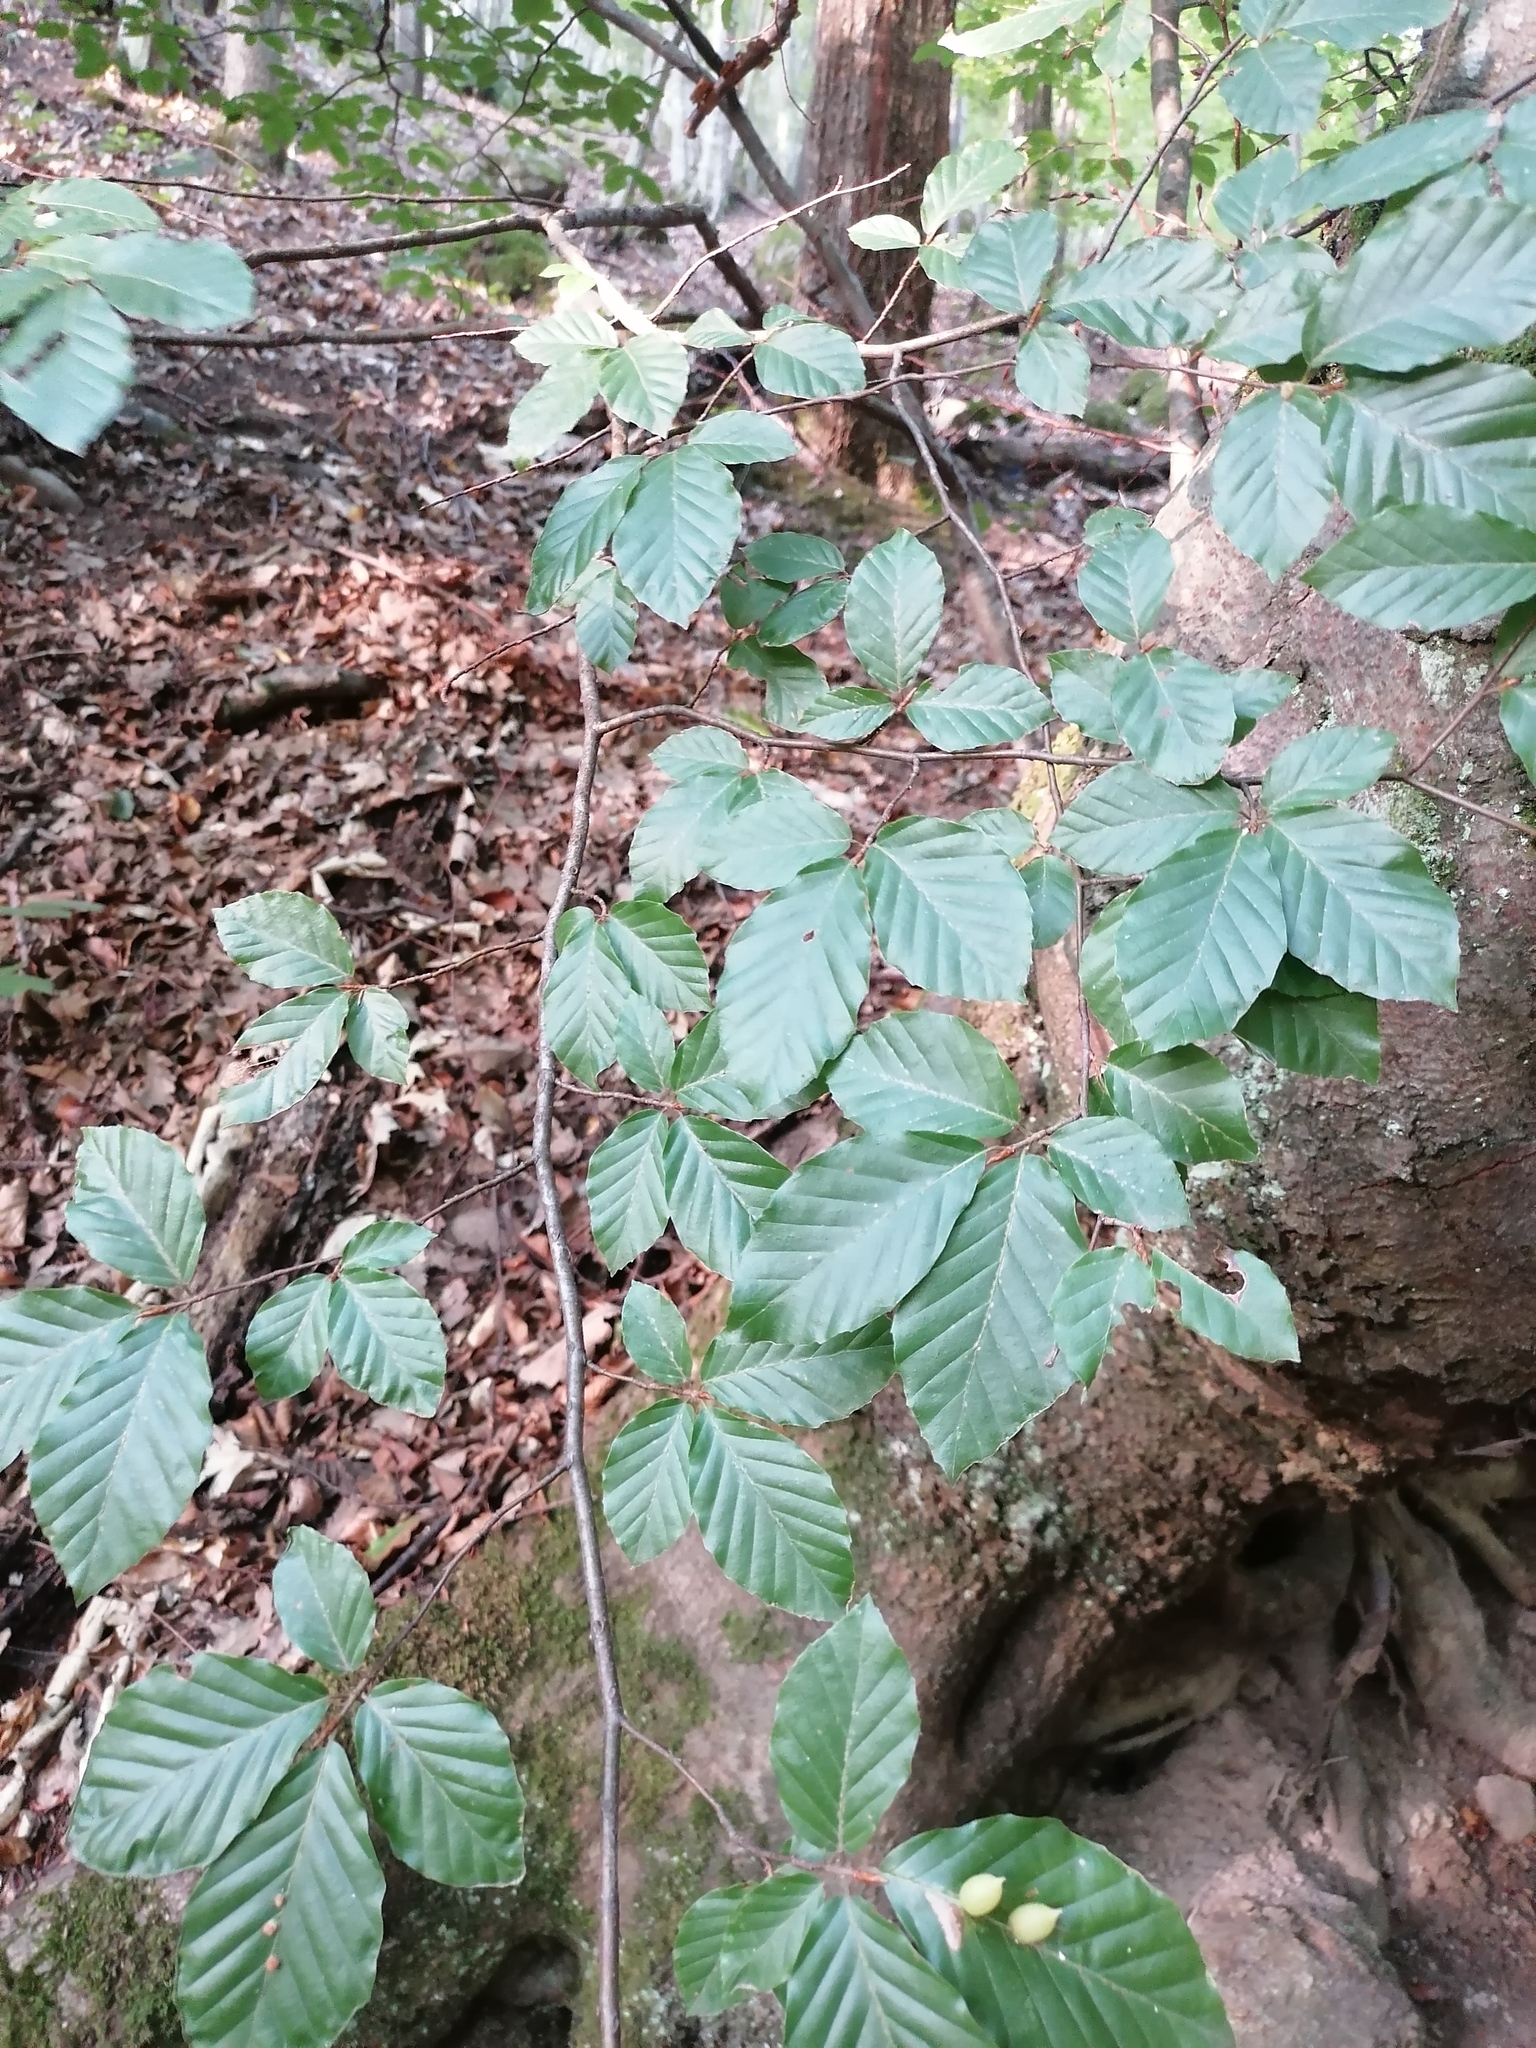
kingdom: Animalia
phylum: Arthropoda
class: Insecta
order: Diptera
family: Cecidomyiidae
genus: Mikiola
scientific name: Mikiola fagi
